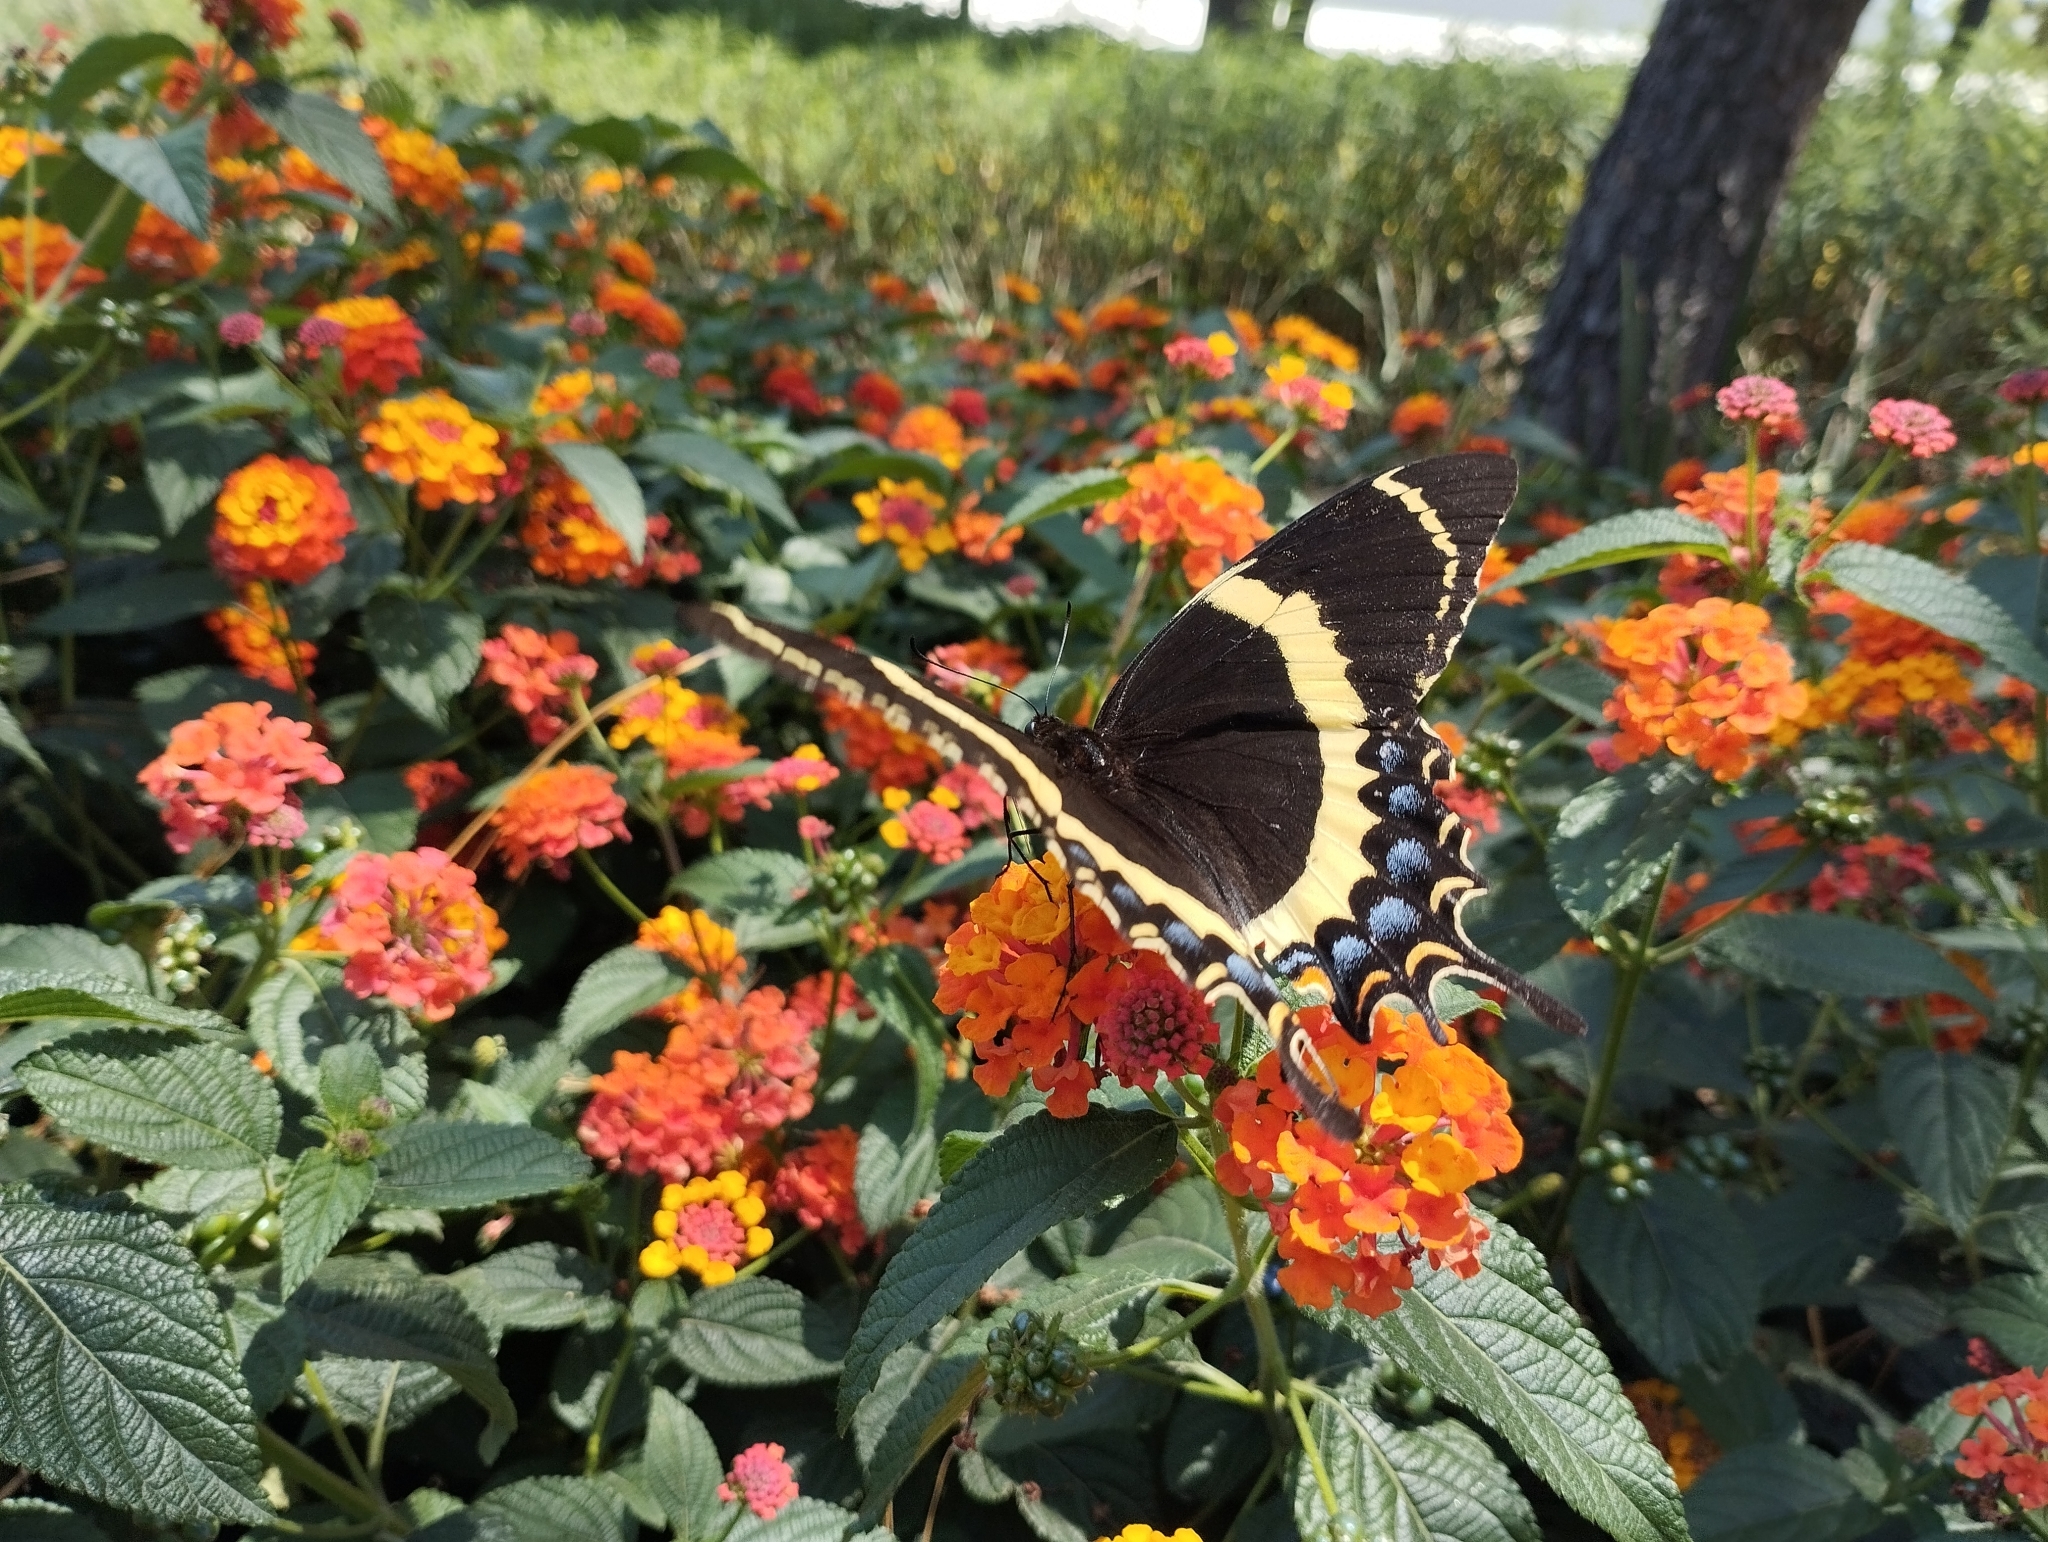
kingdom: Animalia
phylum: Arthropoda
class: Insecta
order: Lepidoptera
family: Papilionidae
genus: Papilio
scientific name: Papilio garamas
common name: Magnificent swallowtail
